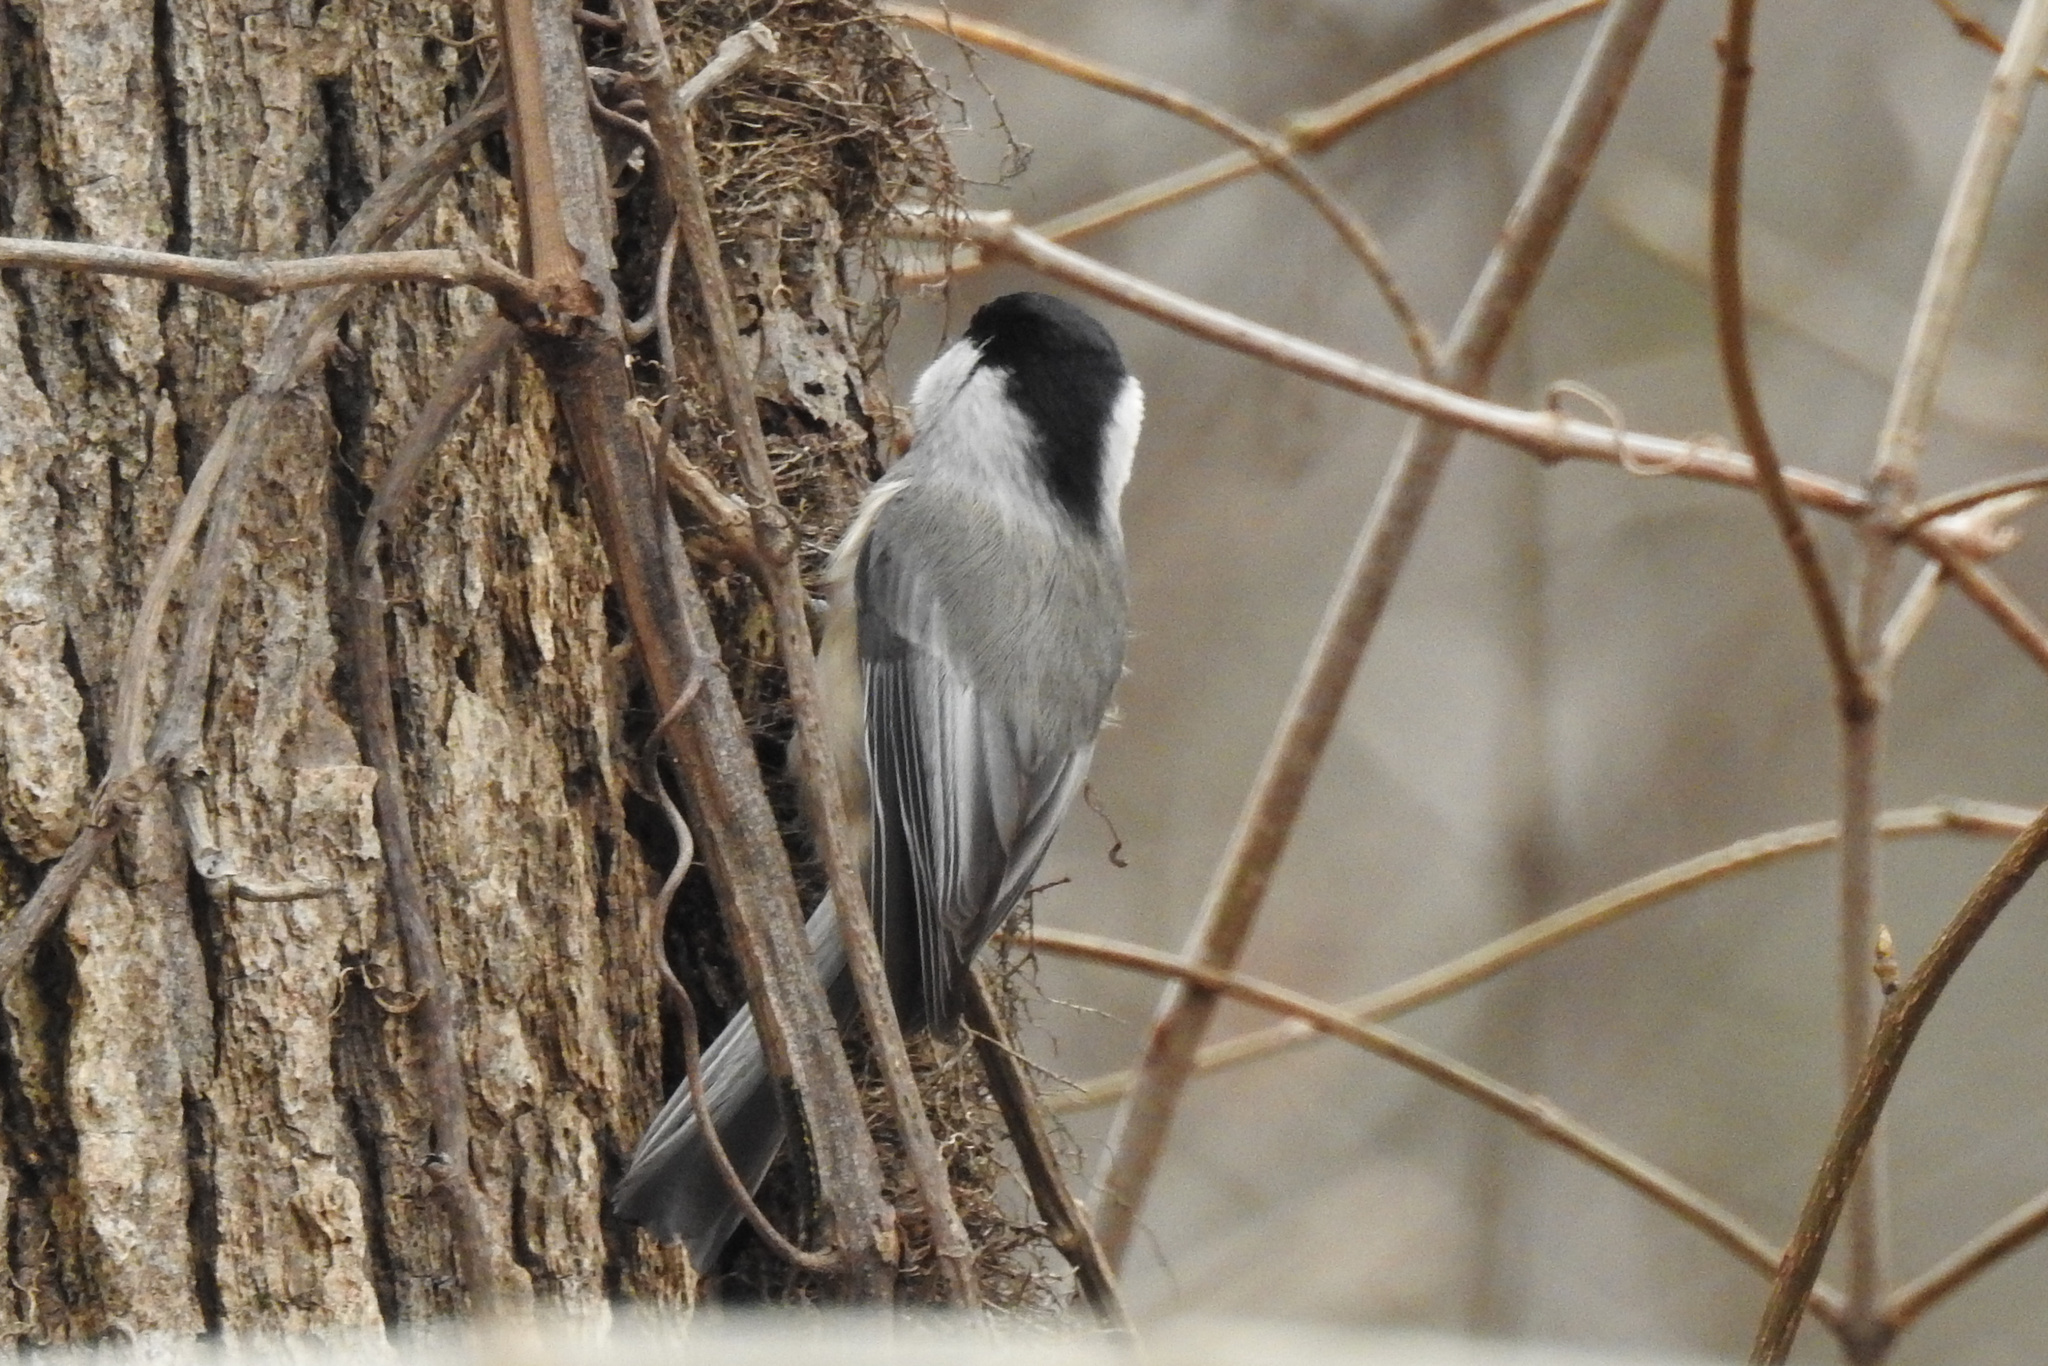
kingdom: Animalia
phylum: Chordata
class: Aves
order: Passeriformes
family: Paridae
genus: Poecile
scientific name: Poecile carolinensis
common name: Carolina chickadee
